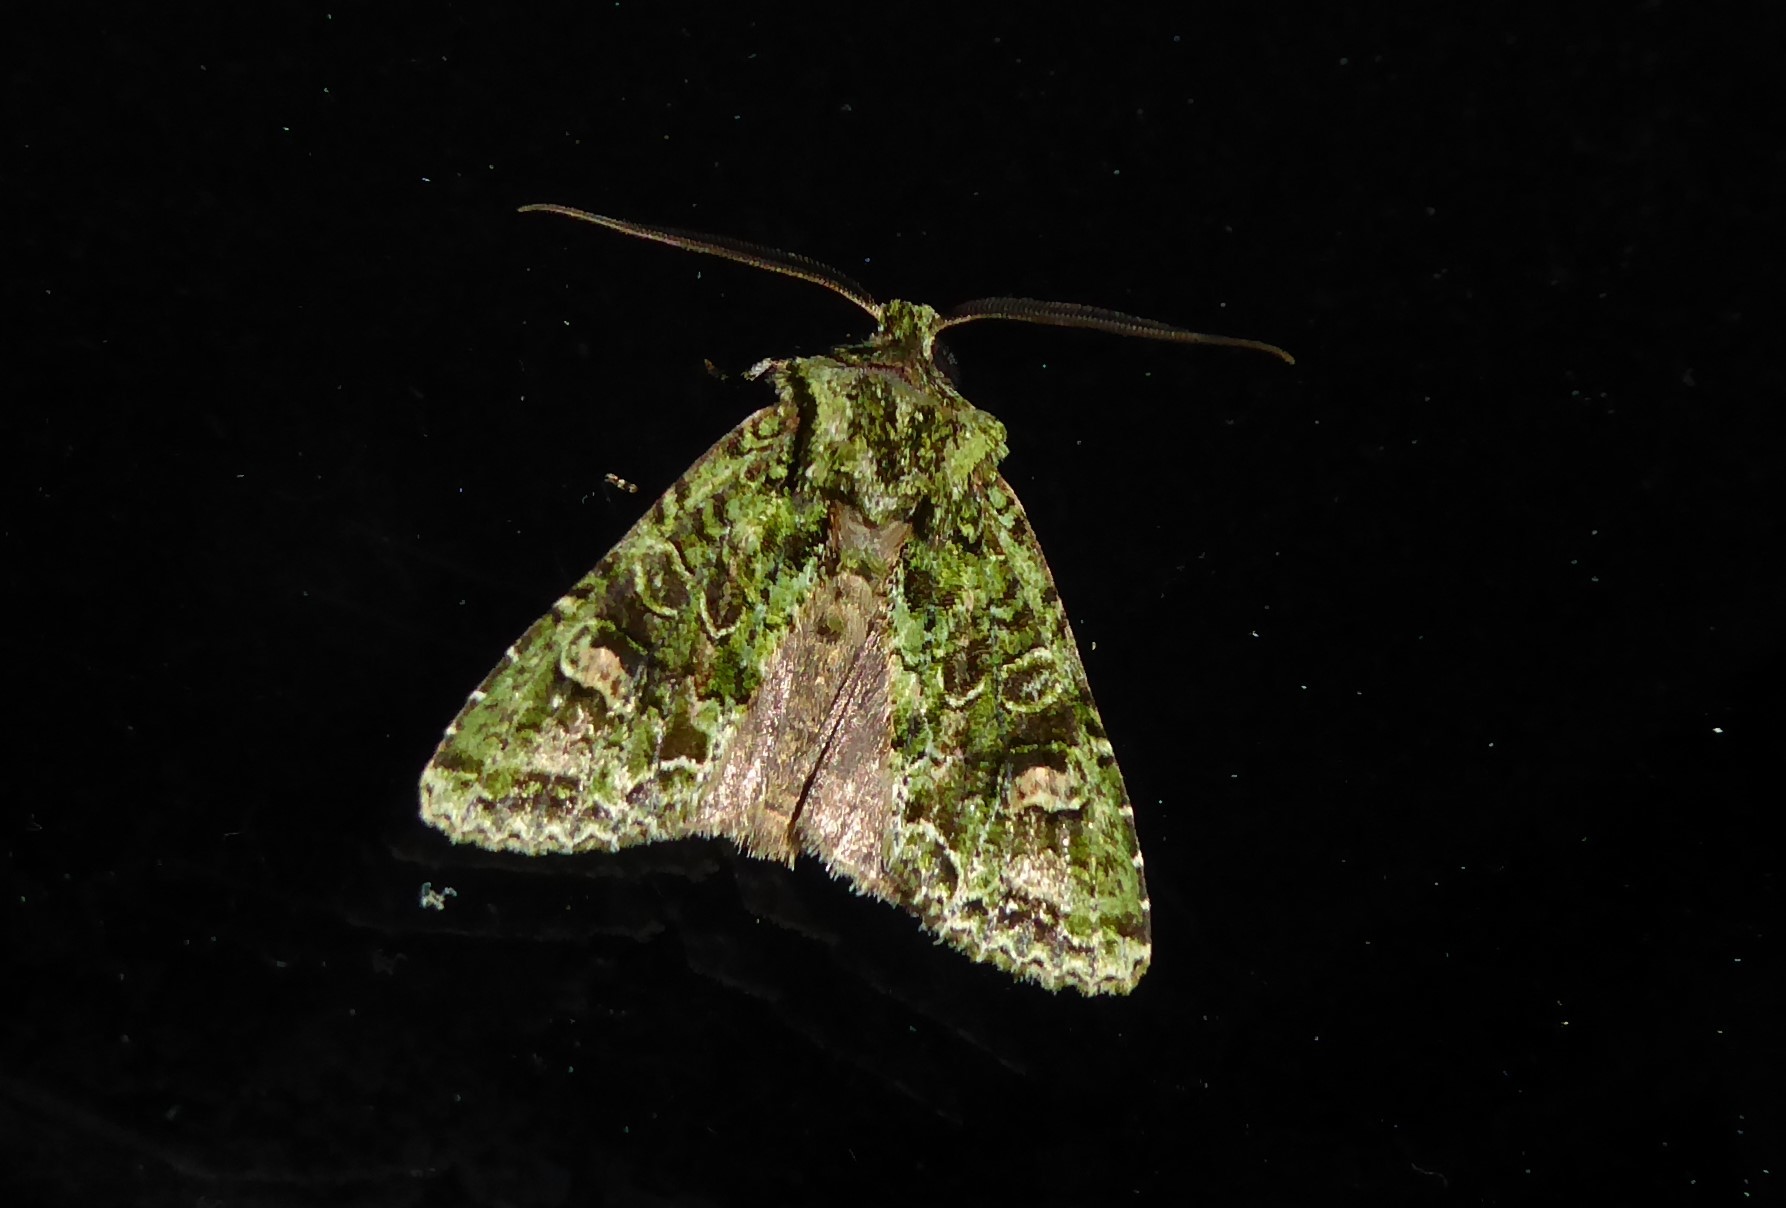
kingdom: Animalia
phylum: Arthropoda
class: Insecta
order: Lepidoptera
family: Noctuidae
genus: Ichneutica
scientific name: Ichneutica
